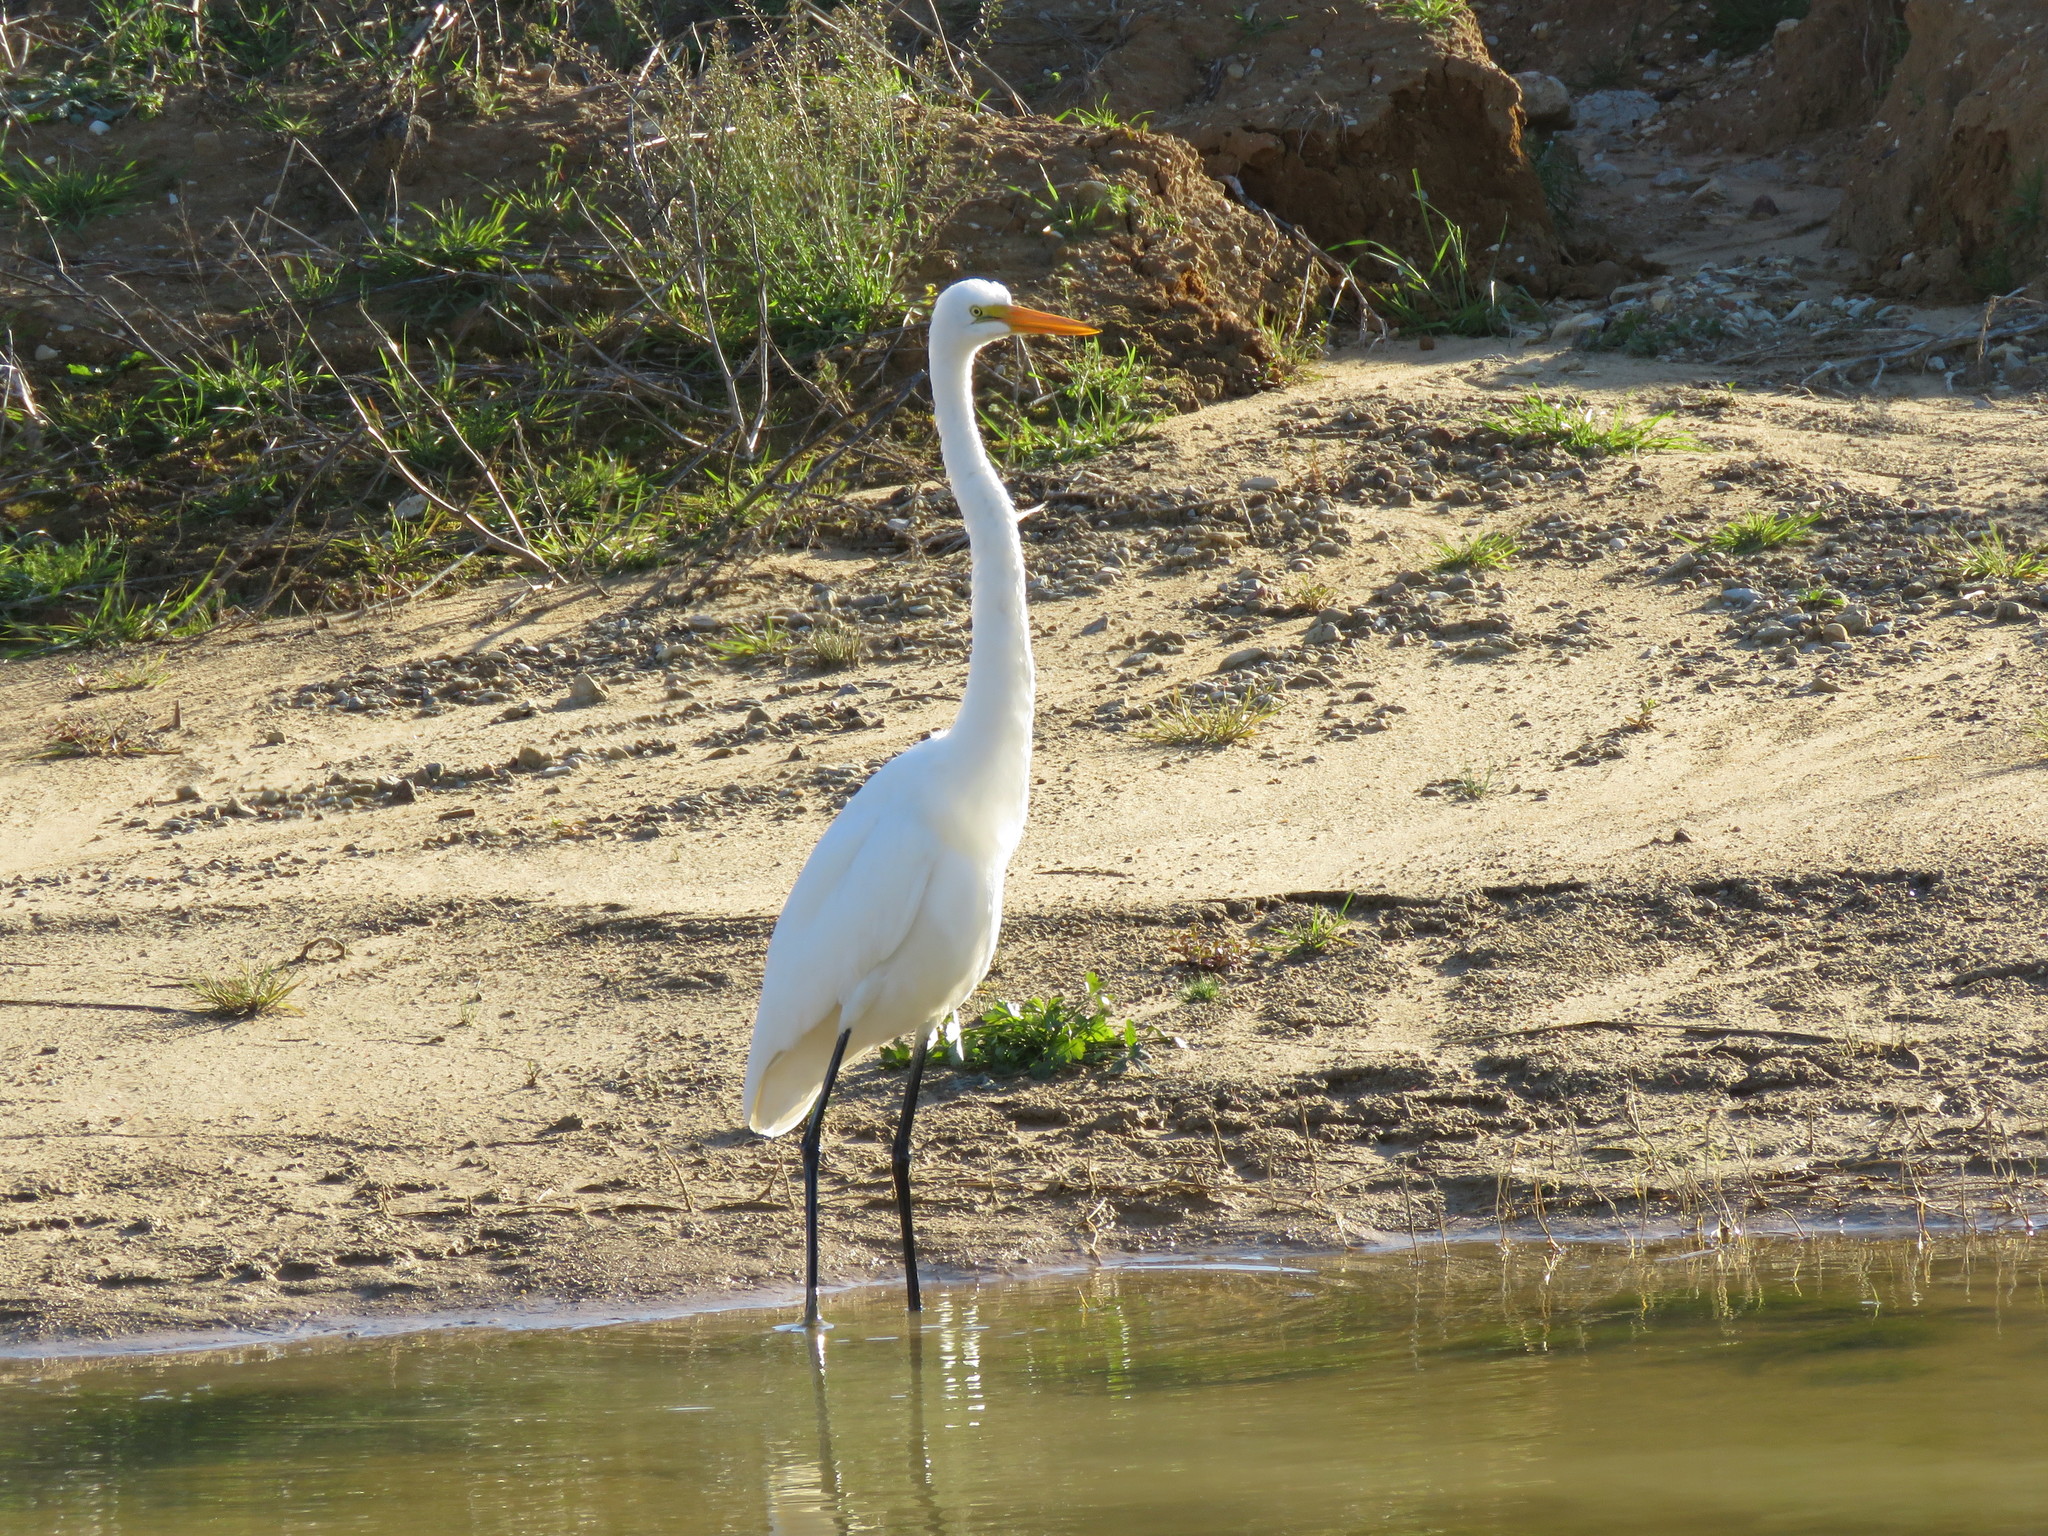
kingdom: Animalia
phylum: Chordata
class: Aves
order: Pelecaniformes
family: Ardeidae
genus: Ardea
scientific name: Ardea alba
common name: Great egret
